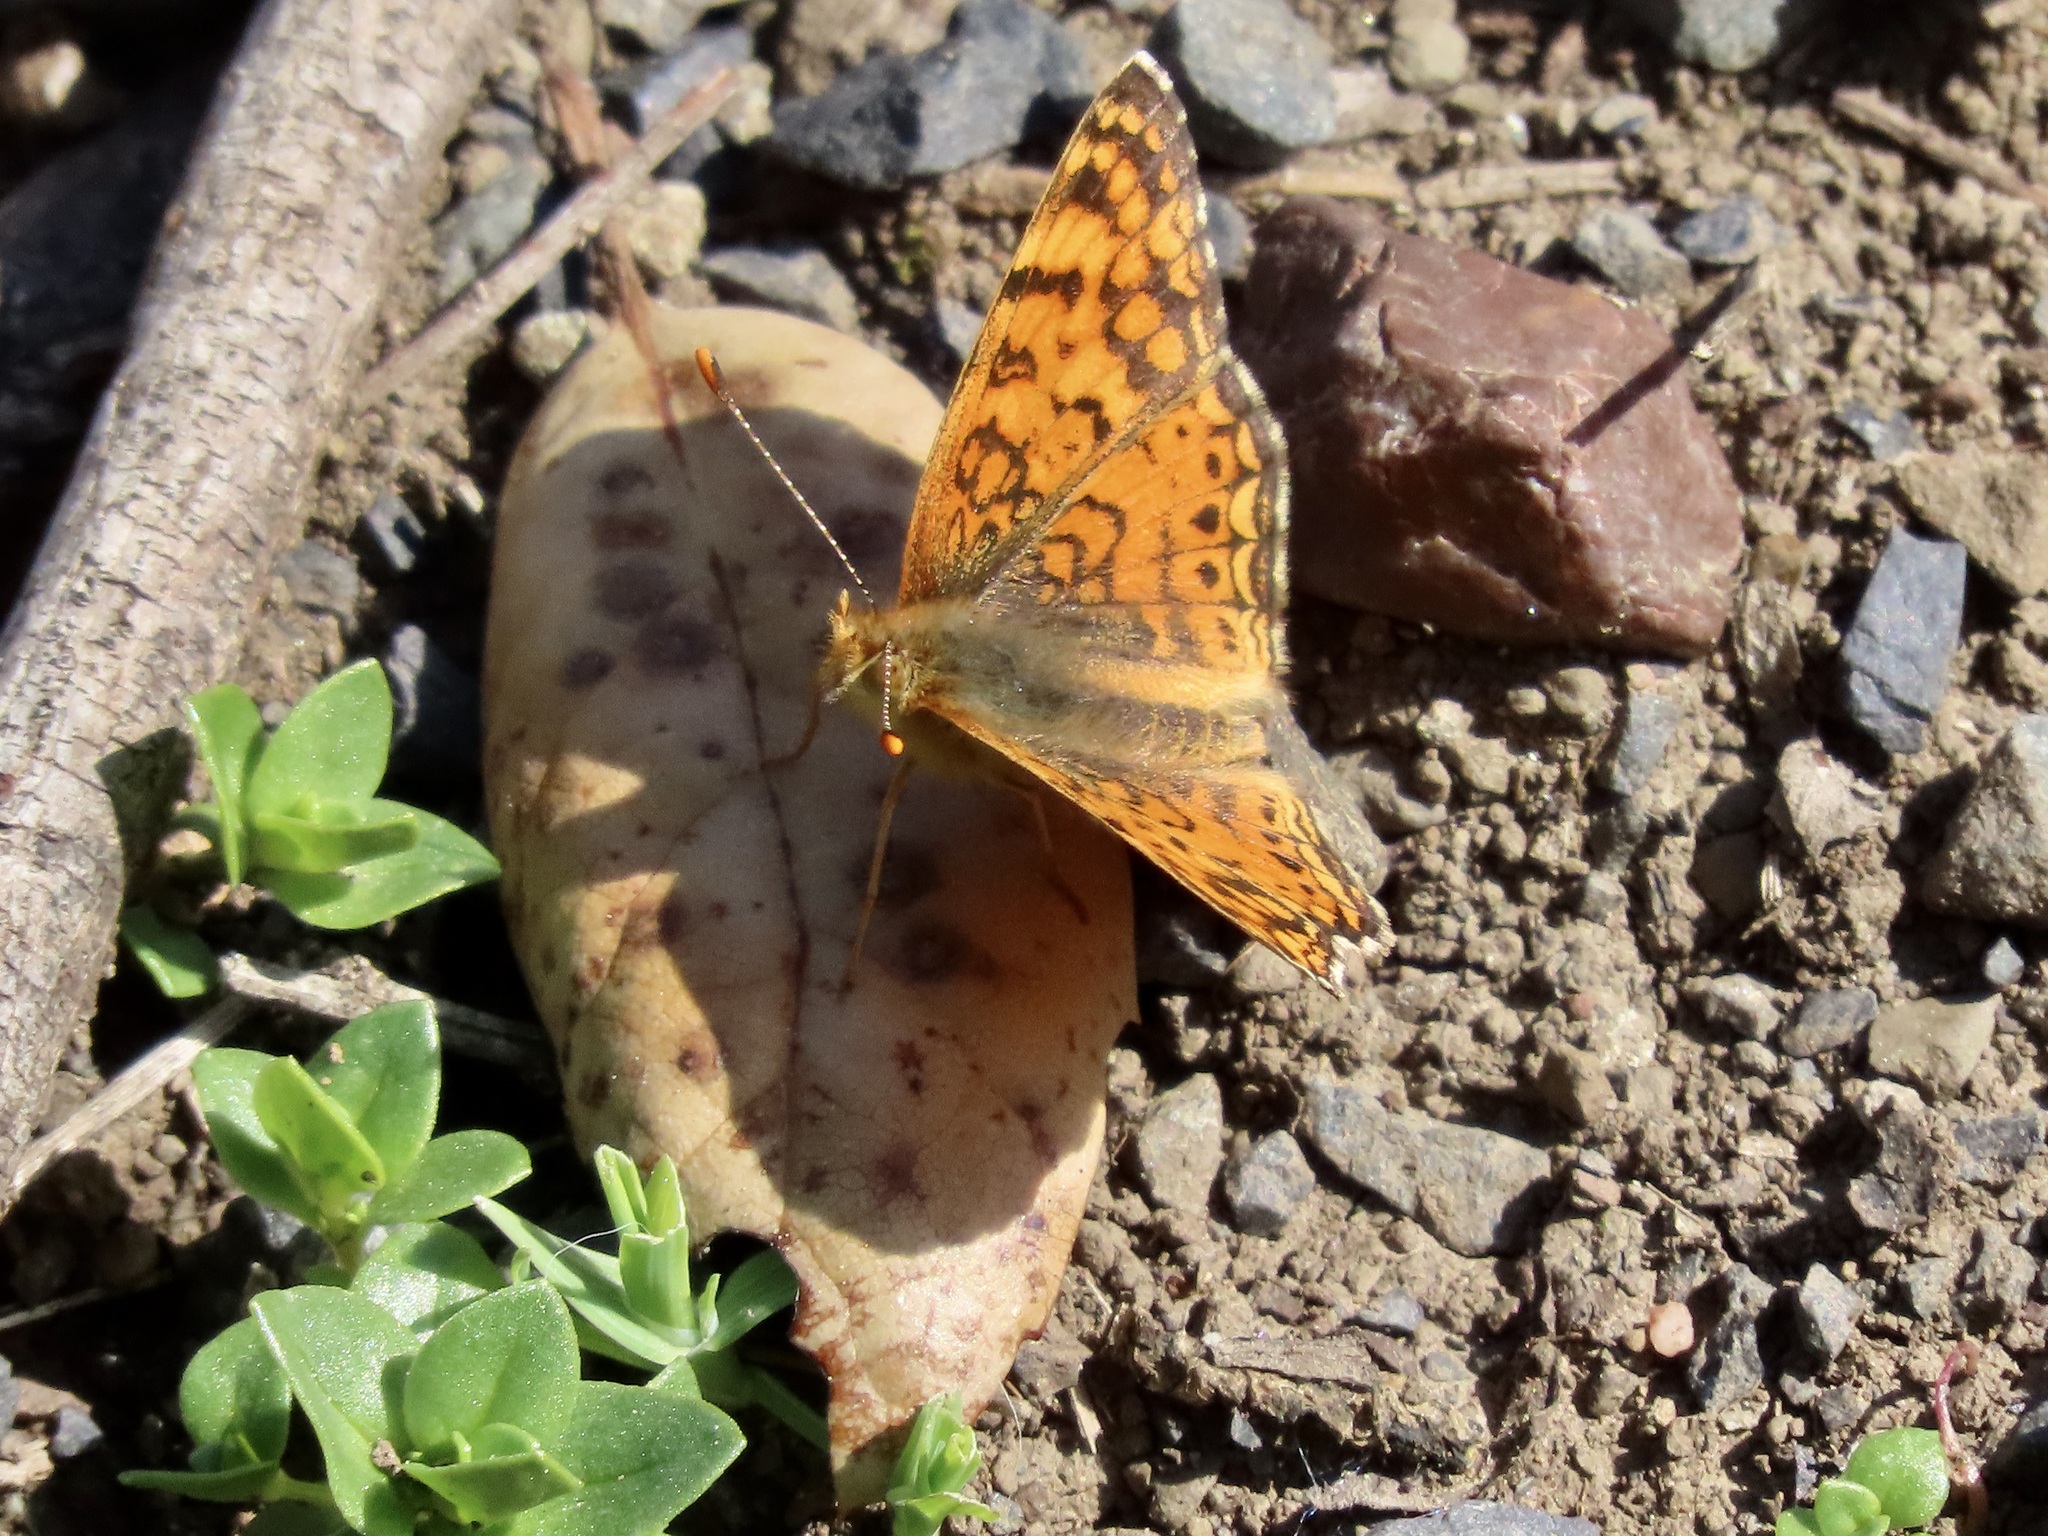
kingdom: Animalia
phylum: Arthropoda
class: Insecta
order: Lepidoptera
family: Nymphalidae
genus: Eresia
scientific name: Eresia aveyrona
